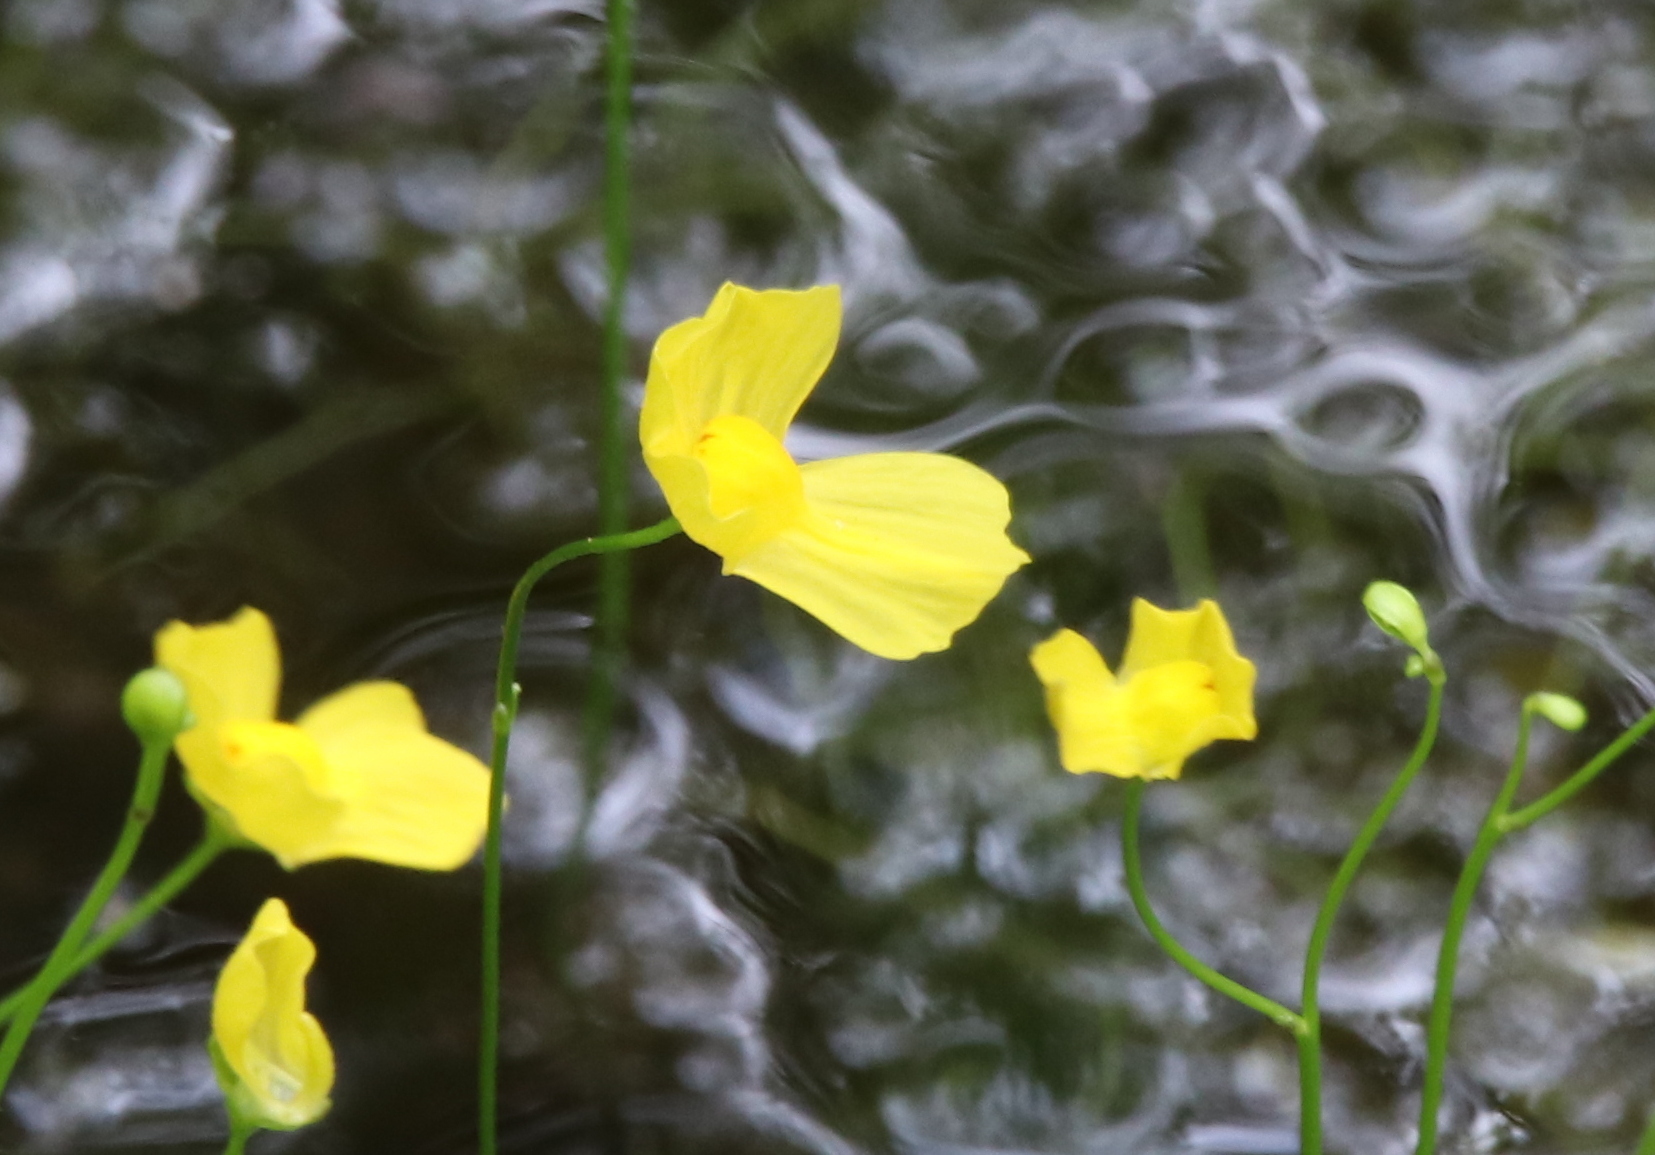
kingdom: Plantae
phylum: Tracheophyta
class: Magnoliopsida
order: Lamiales
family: Lentibulariaceae
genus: Utricularia
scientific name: Utricularia gibba
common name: Humped bladderwort
